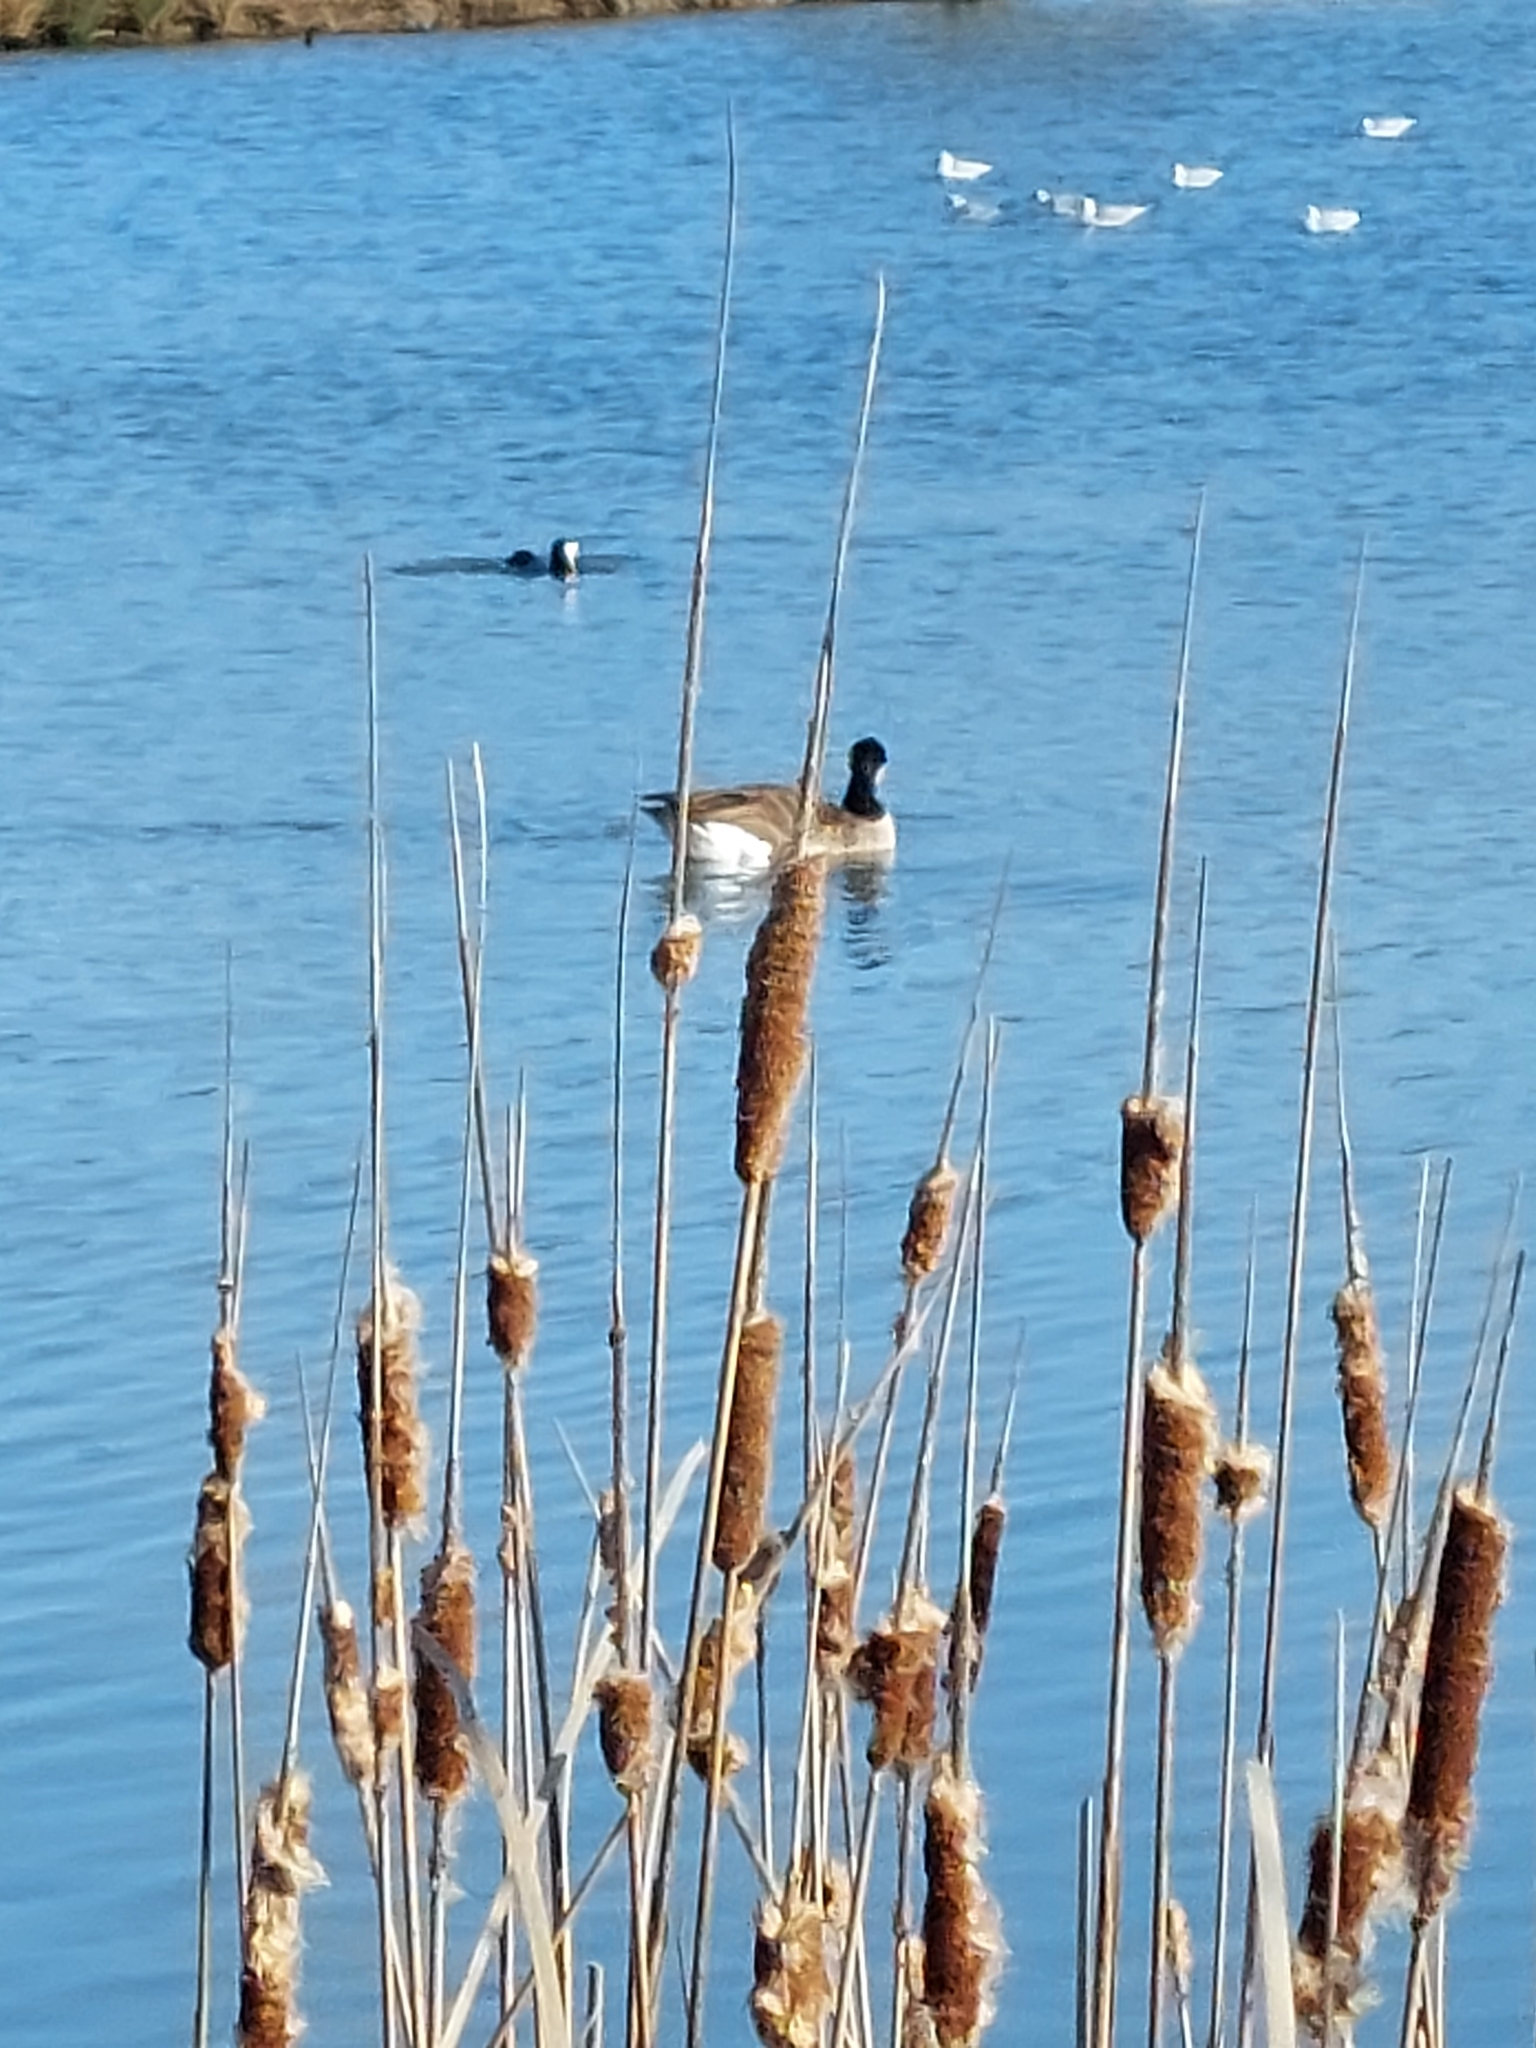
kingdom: Animalia
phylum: Chordata
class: Aves
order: Anseriformes
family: Anatidae
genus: Branta
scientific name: Branta canadensis
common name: Canada goose
